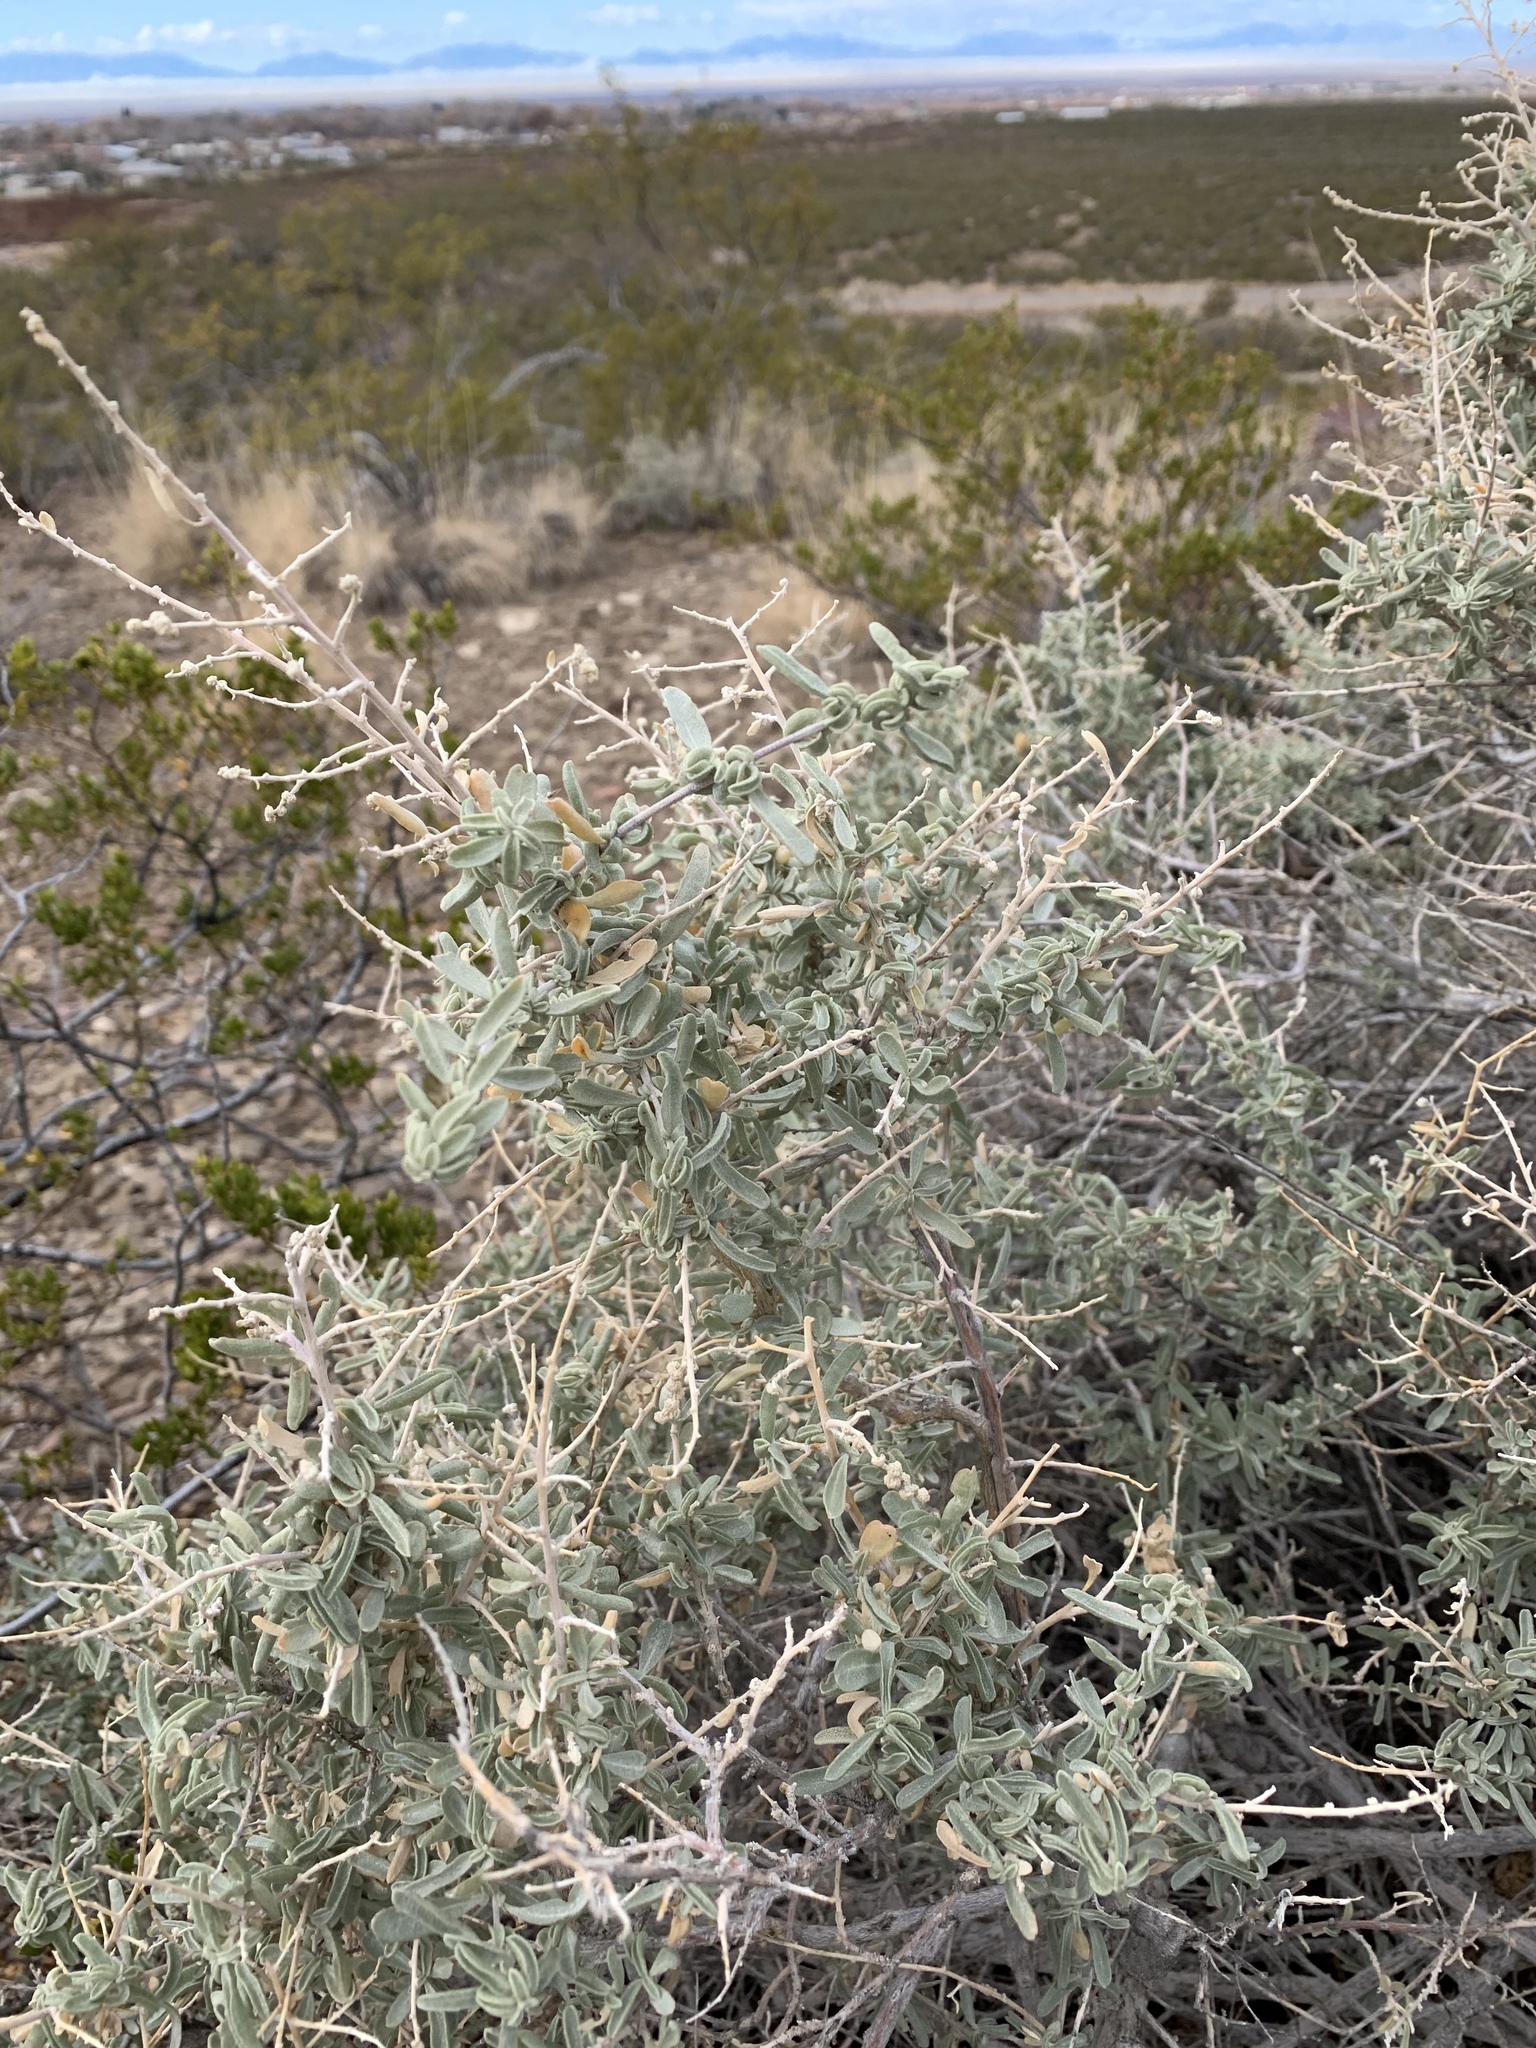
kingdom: Plantae
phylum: Tracheophyta
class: Magnoliopsida
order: Caryophyllales
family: Amaranthaceae
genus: Atriplex
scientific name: Atriplex canescens
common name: Four-wing saltbush
